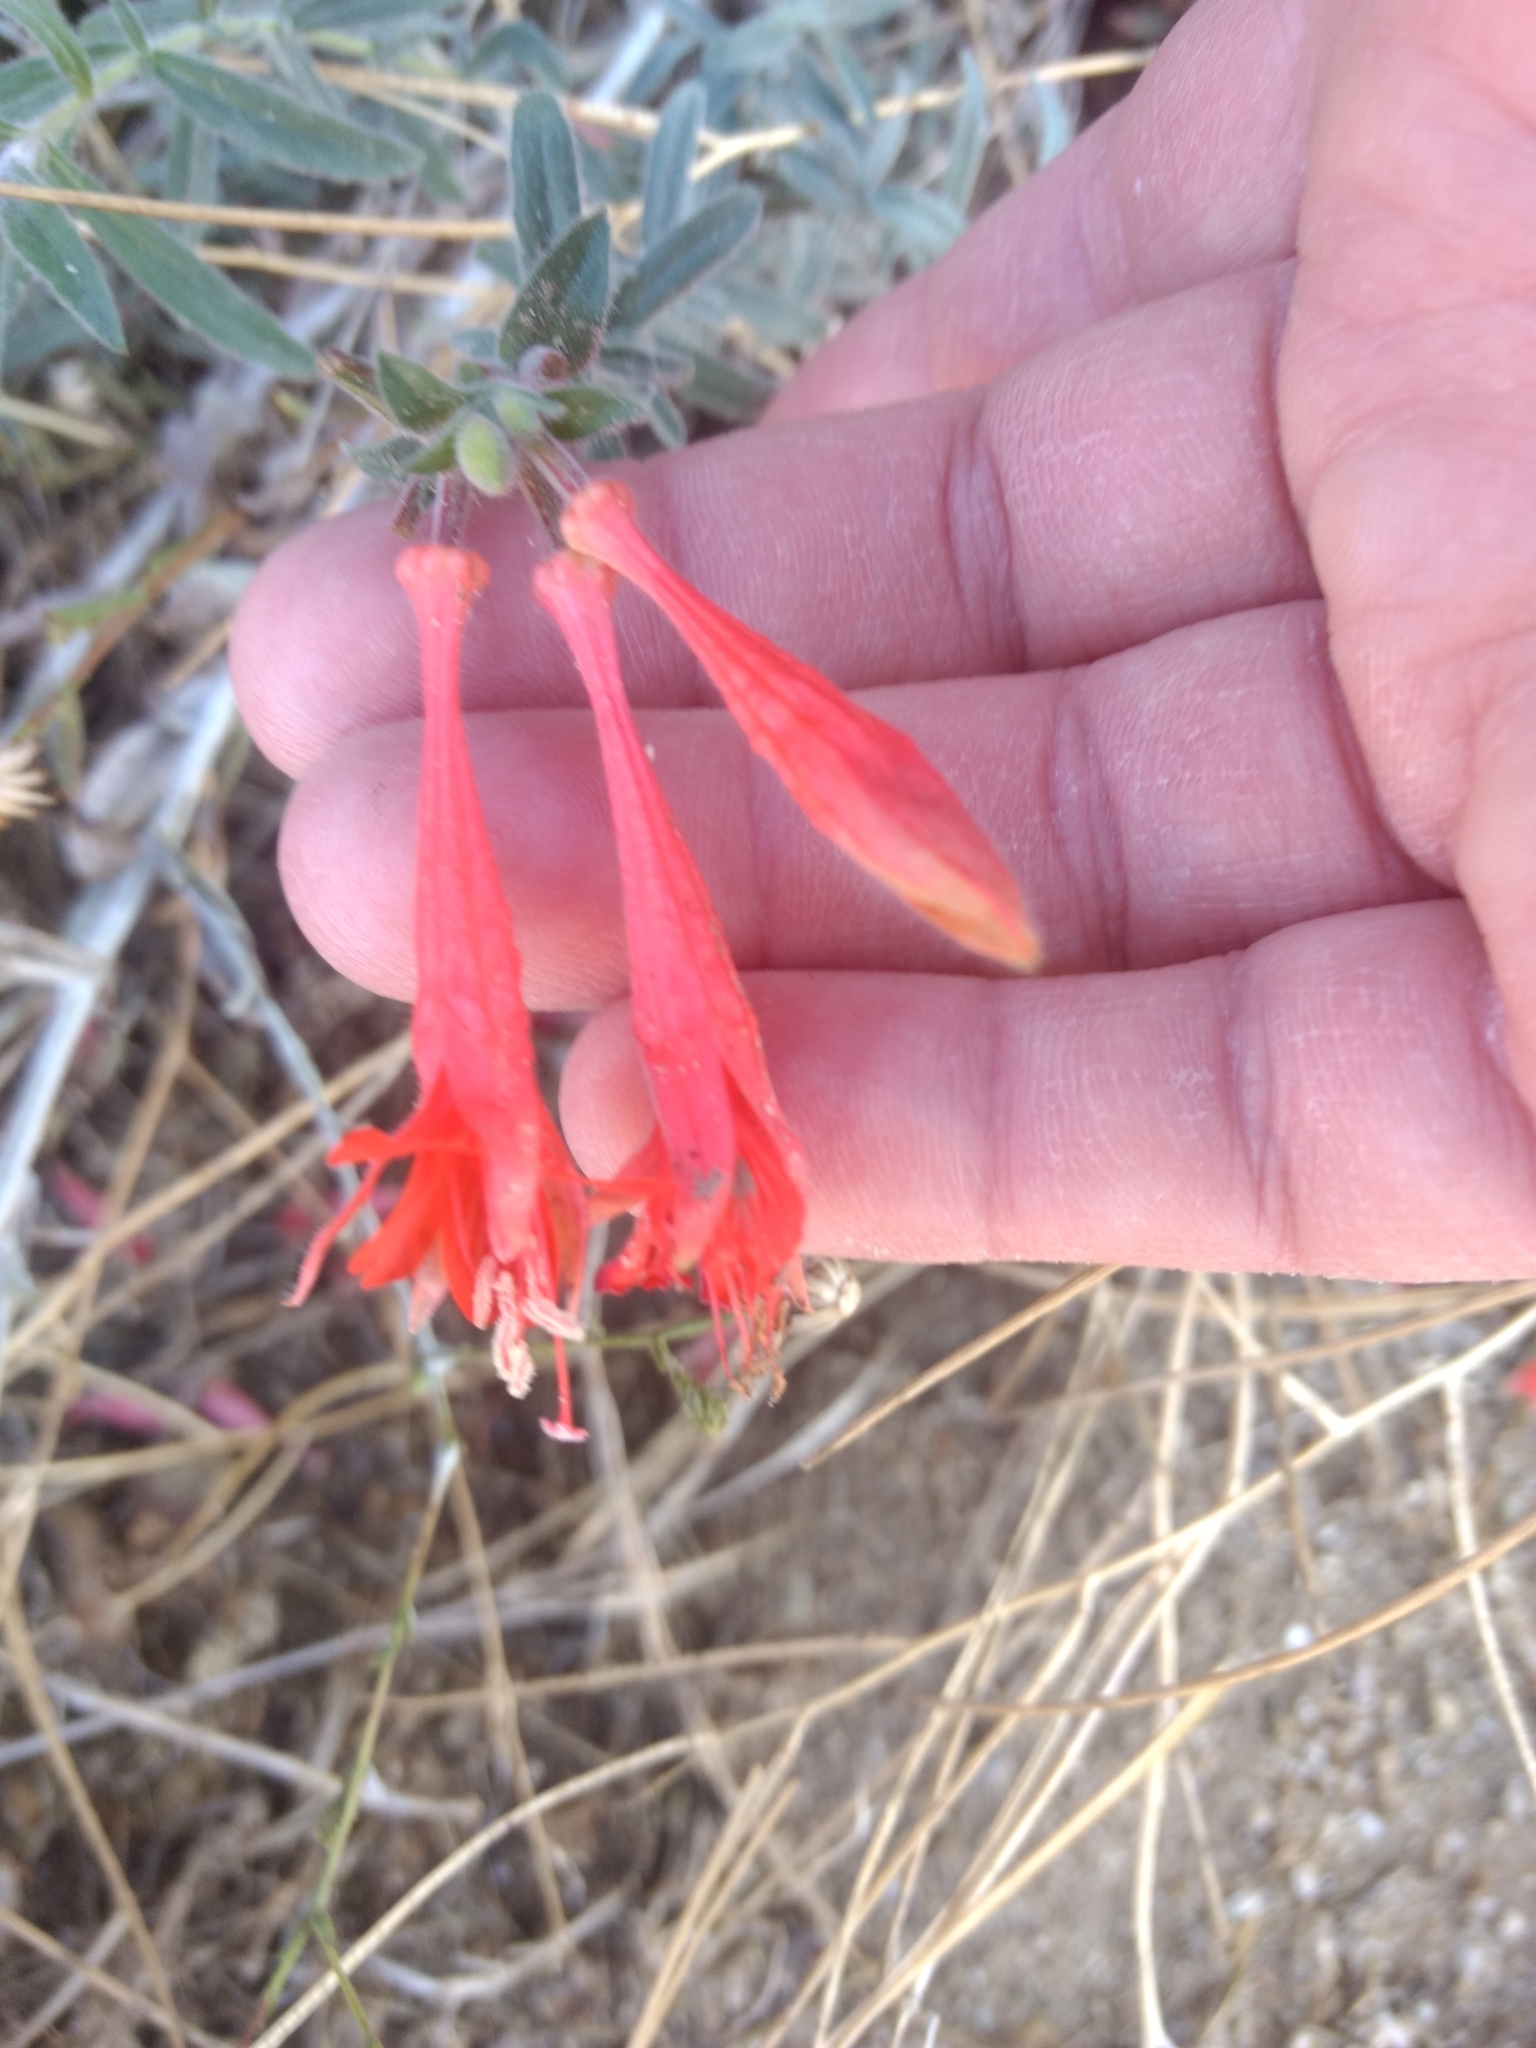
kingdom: Plantae
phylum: Tracheophyta
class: Magnoliopsida
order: Myrtales
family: Onagraceae
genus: Epilobium
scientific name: Epilobium canum
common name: California-fuchsia
